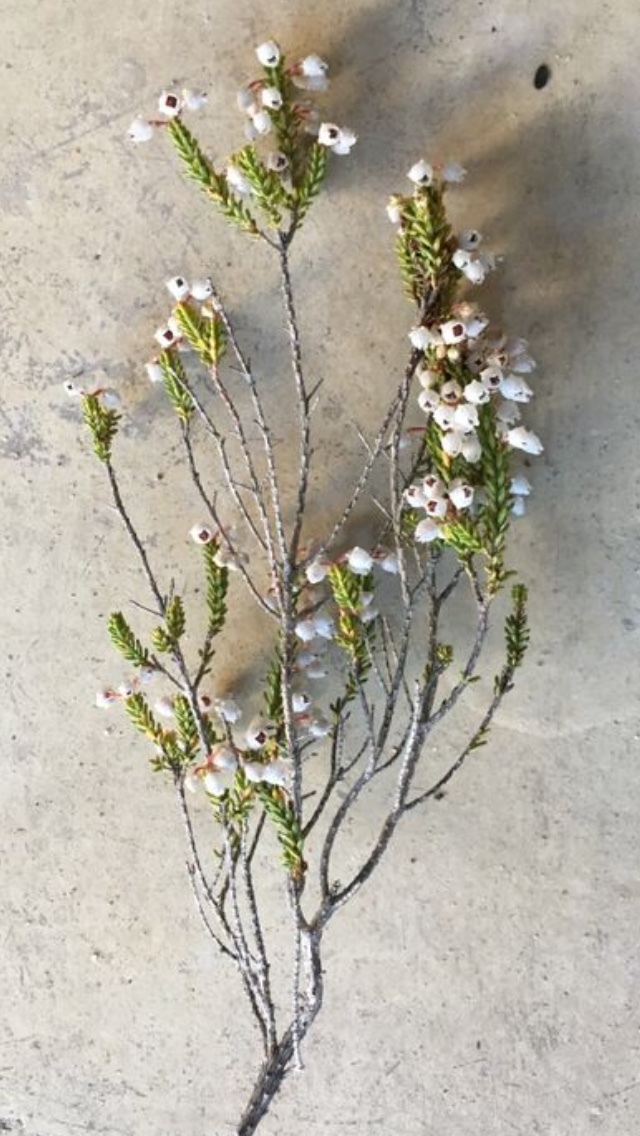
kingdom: Plantae
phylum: Tracheophyta
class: Magnoliopsida
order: Ericales
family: Ericaceae
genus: Erica
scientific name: Erica spectabilis
